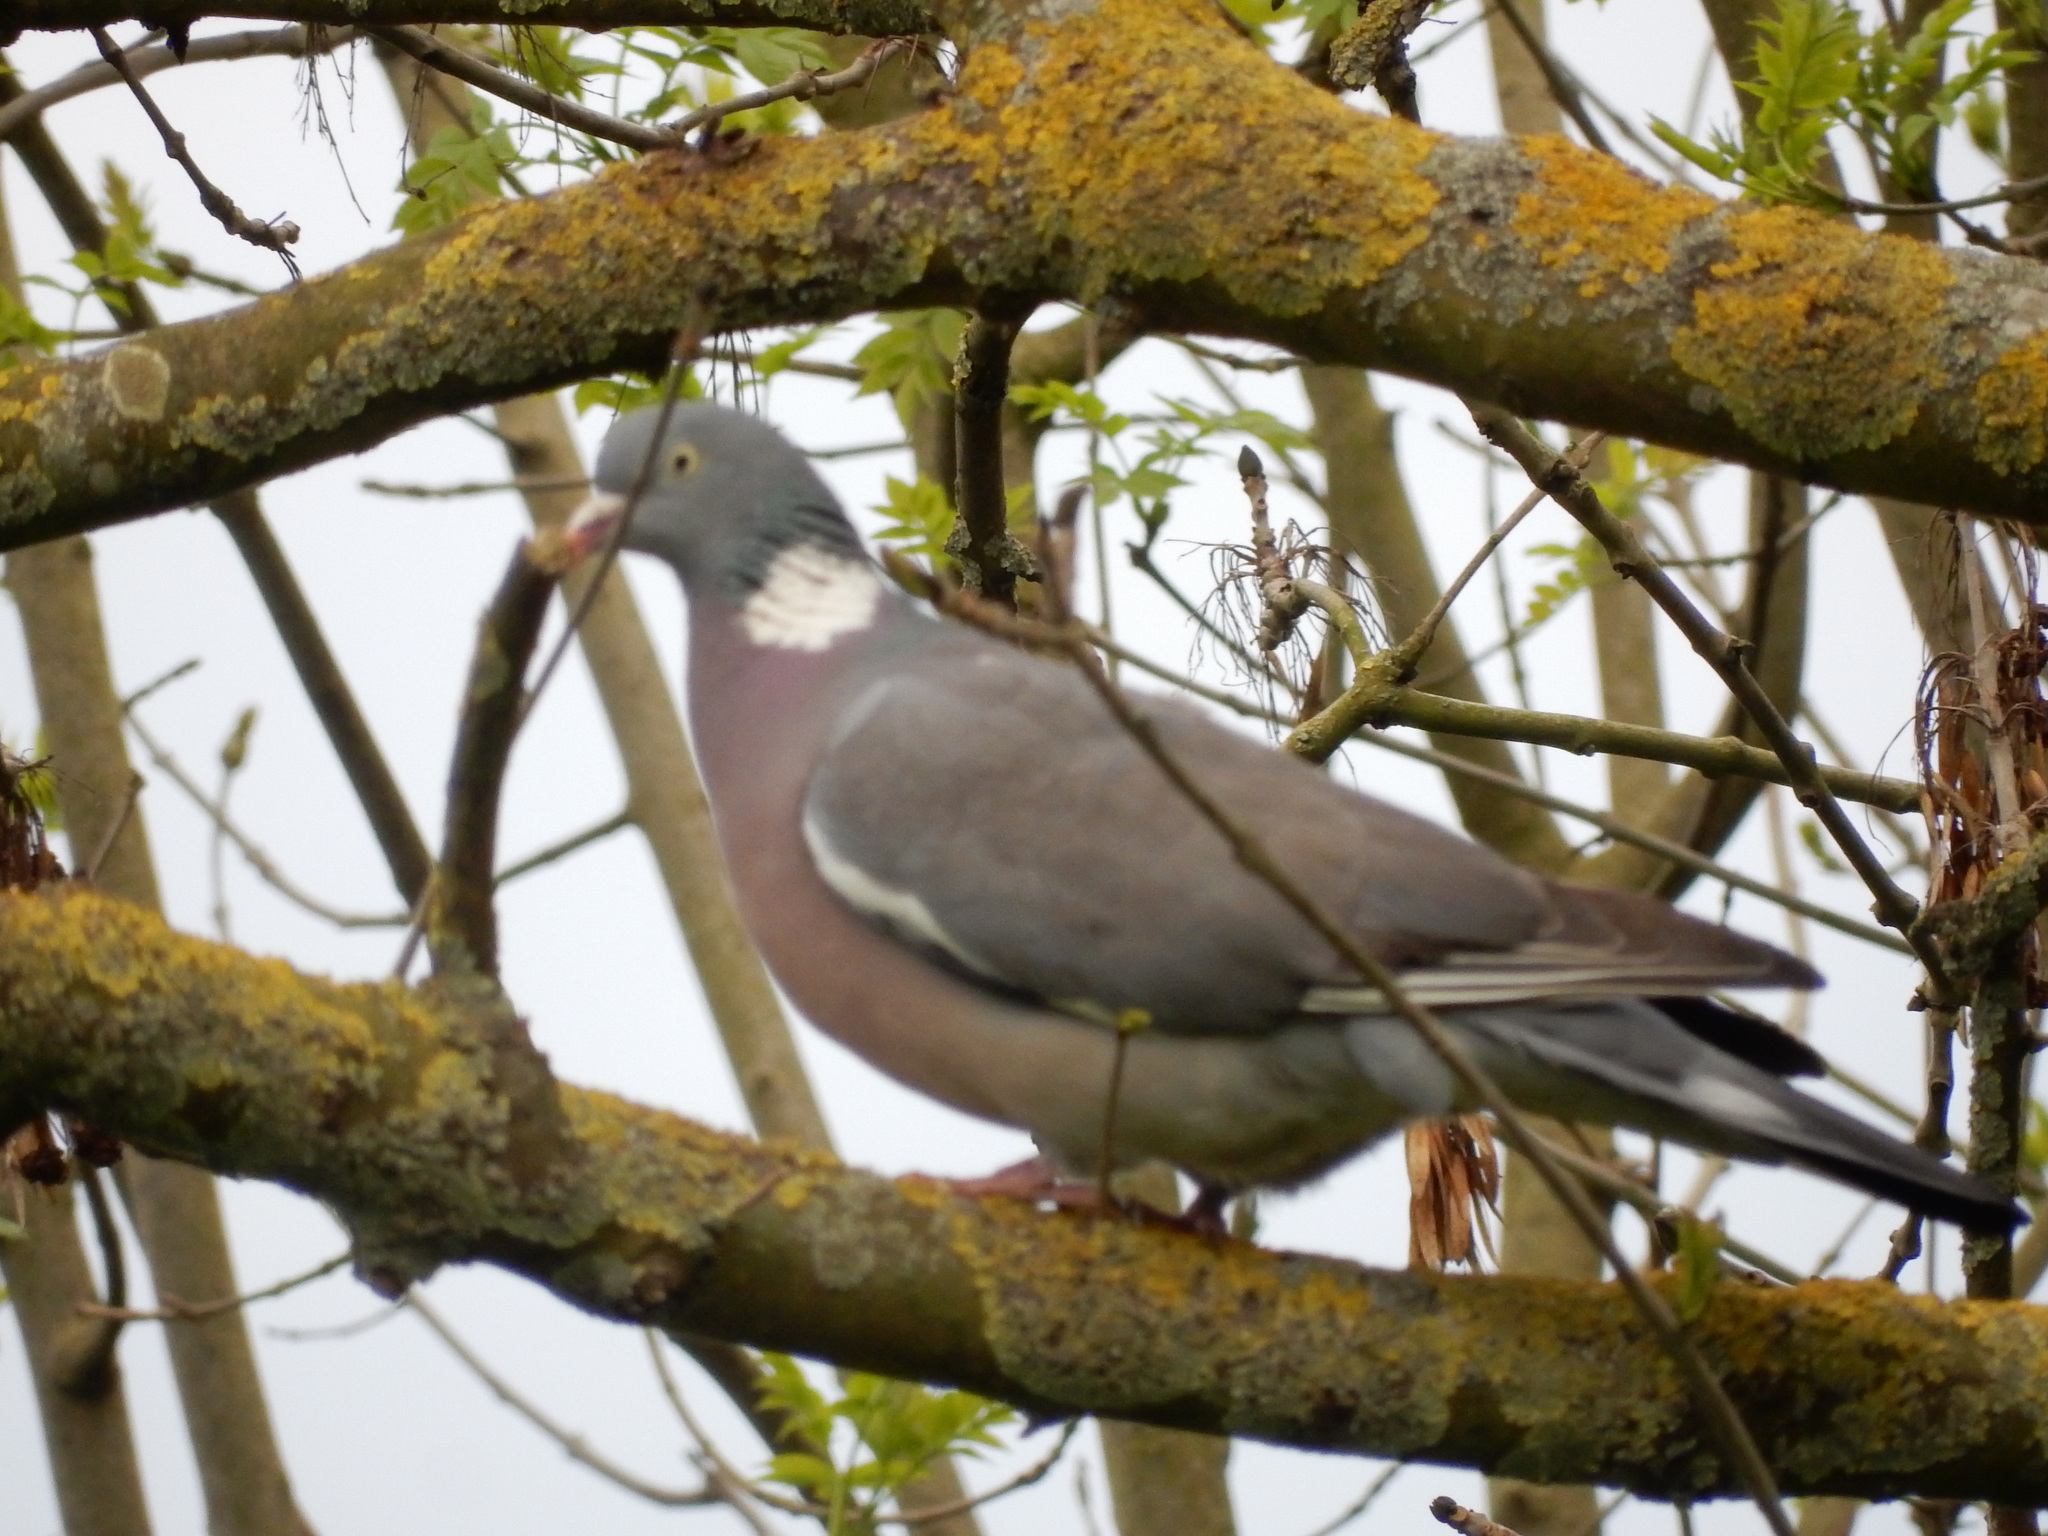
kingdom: Animalia
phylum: Chordata
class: Aves
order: Columbiformes
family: Columbidae
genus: Columba
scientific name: Columba palumbus
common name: Common wood pigeon
